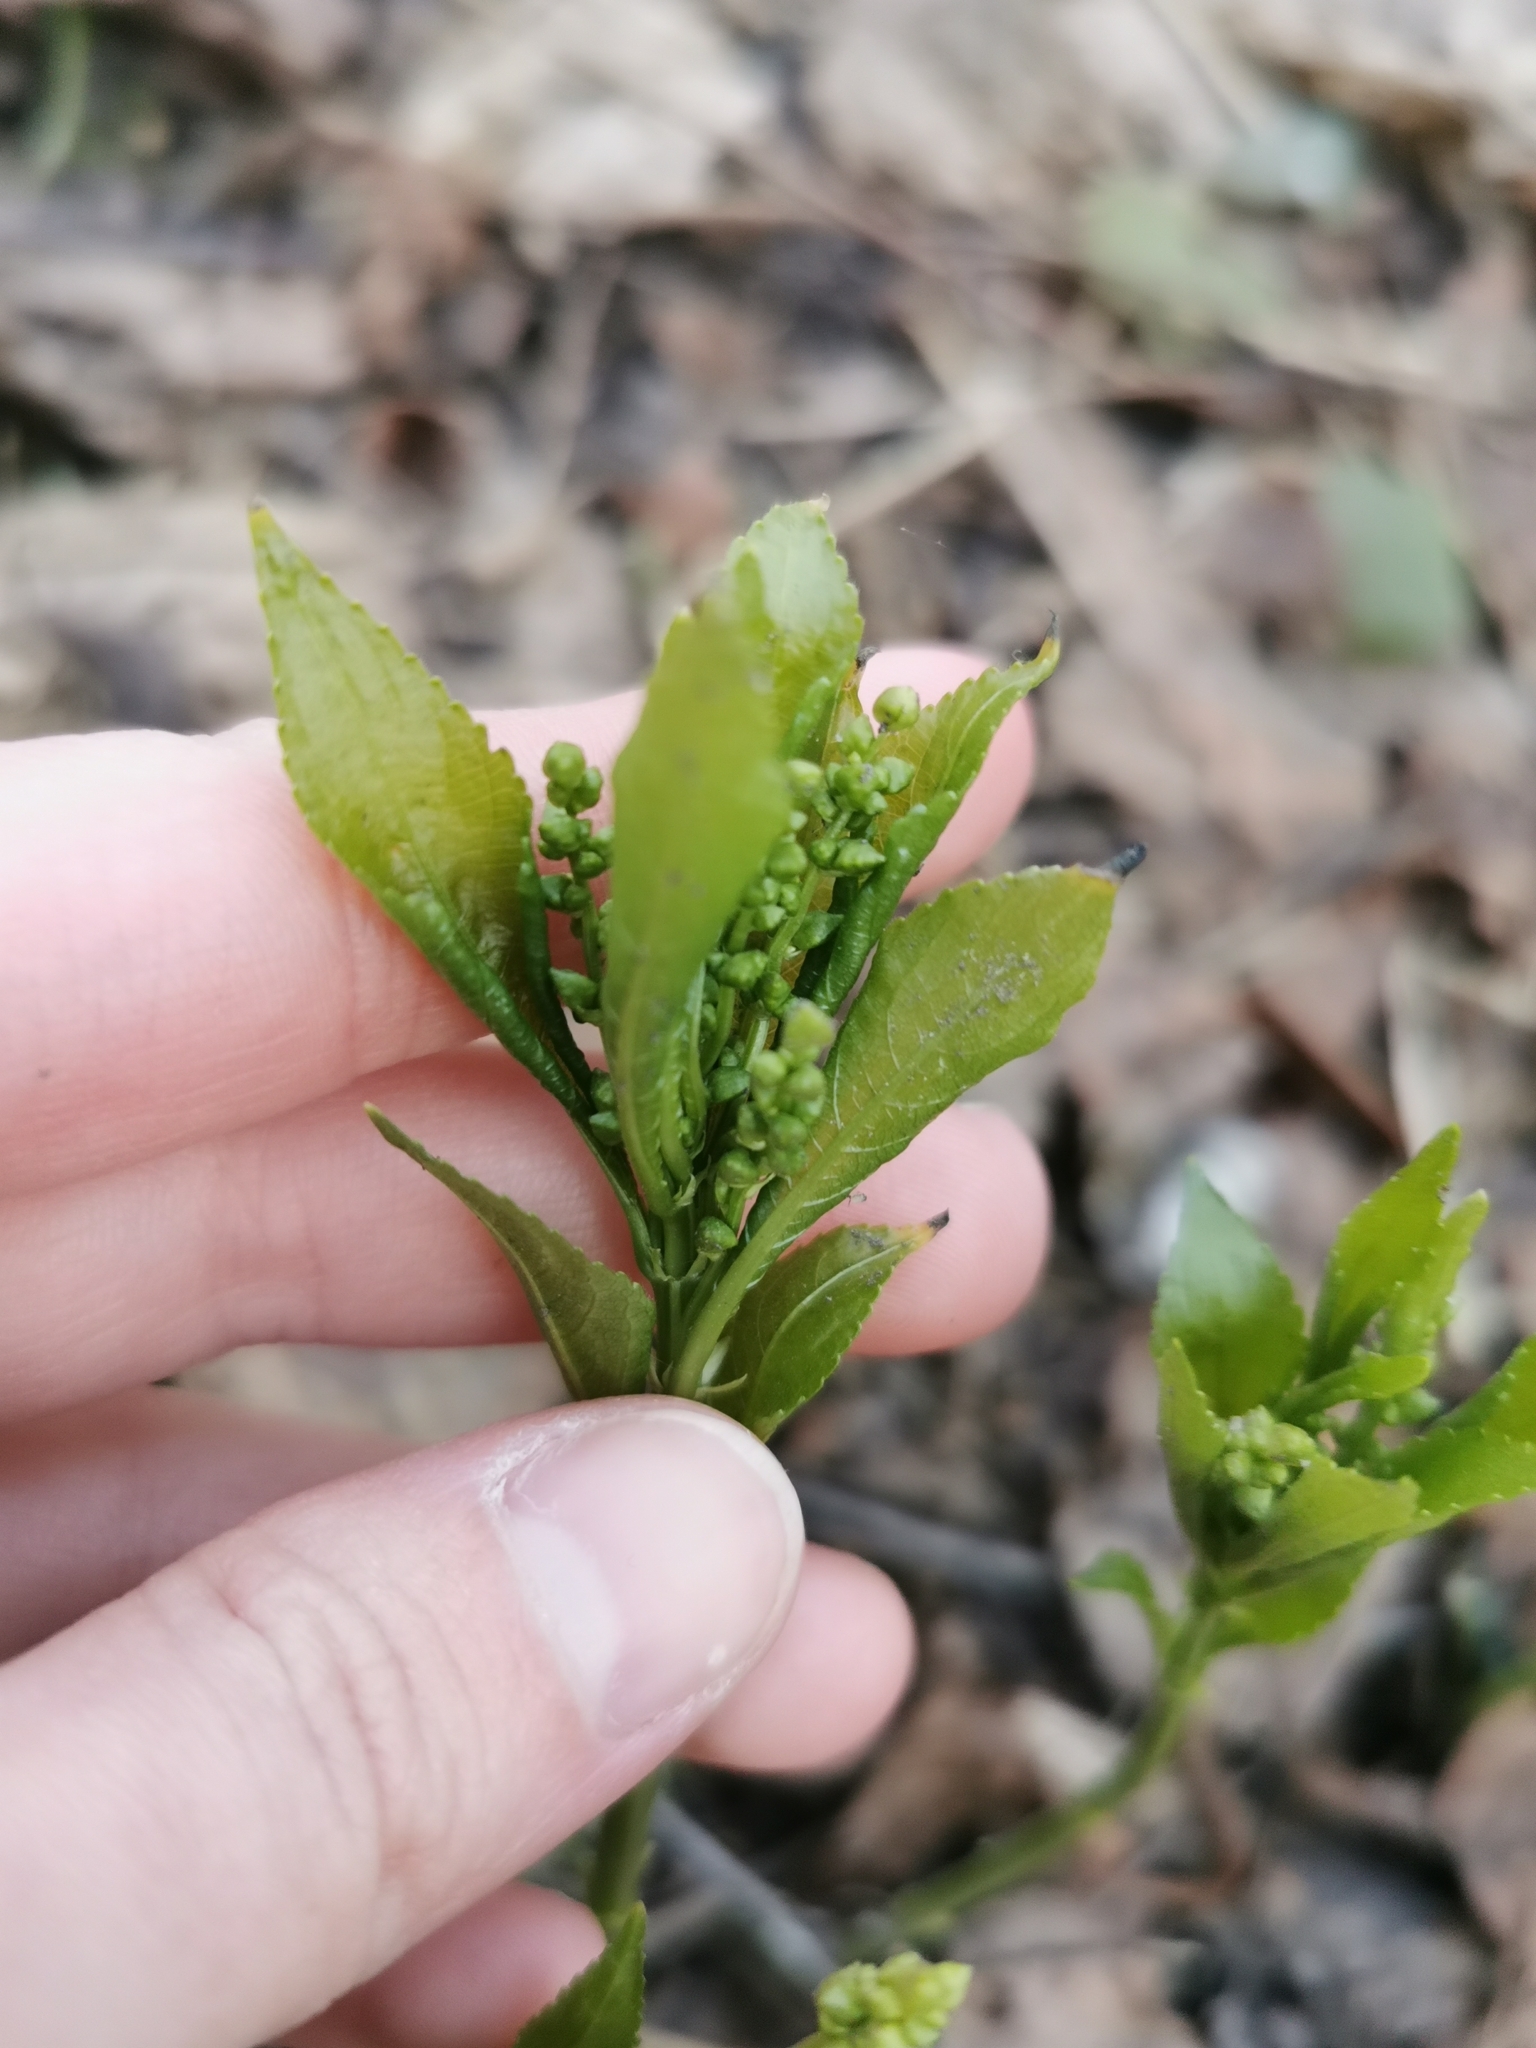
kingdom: Plantae
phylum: Tracheophyta
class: Magnoliopsida
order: Malpighiales
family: Euphorbiaceae
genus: Mercurialis
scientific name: Mercurialis perennis
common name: Dog mercury
